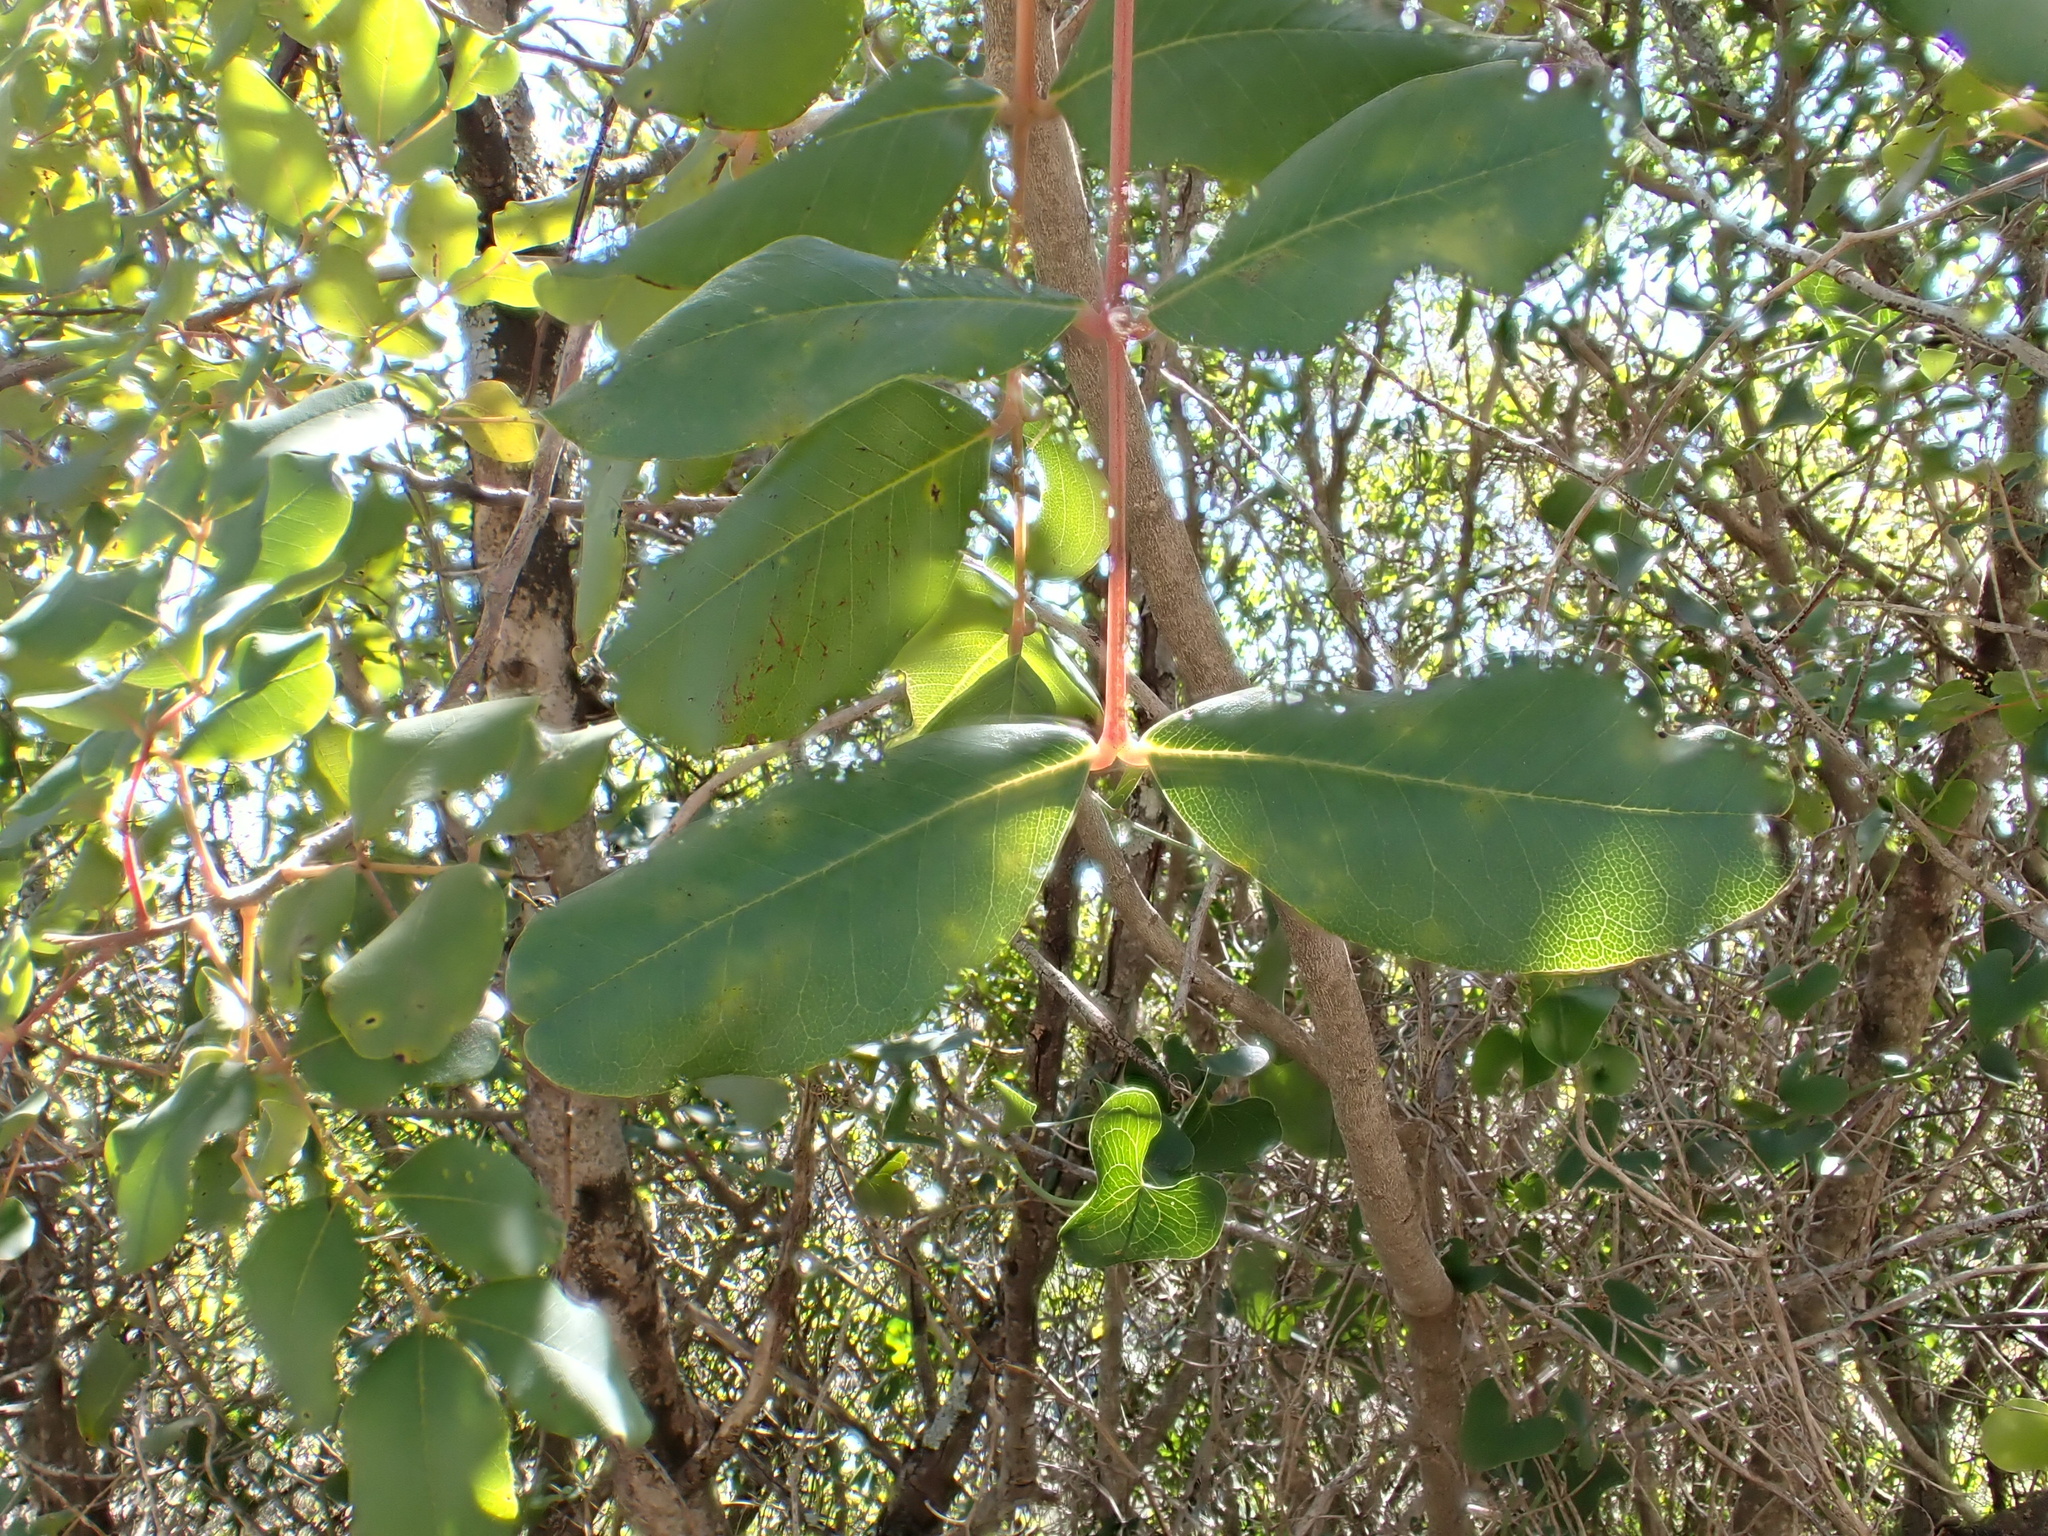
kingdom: Plantae
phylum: Tracheophyta
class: Magnoliopsida
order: Fabales
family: Fabaceae
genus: Ceratonia
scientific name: Ceratonia siliqua
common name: Carob
